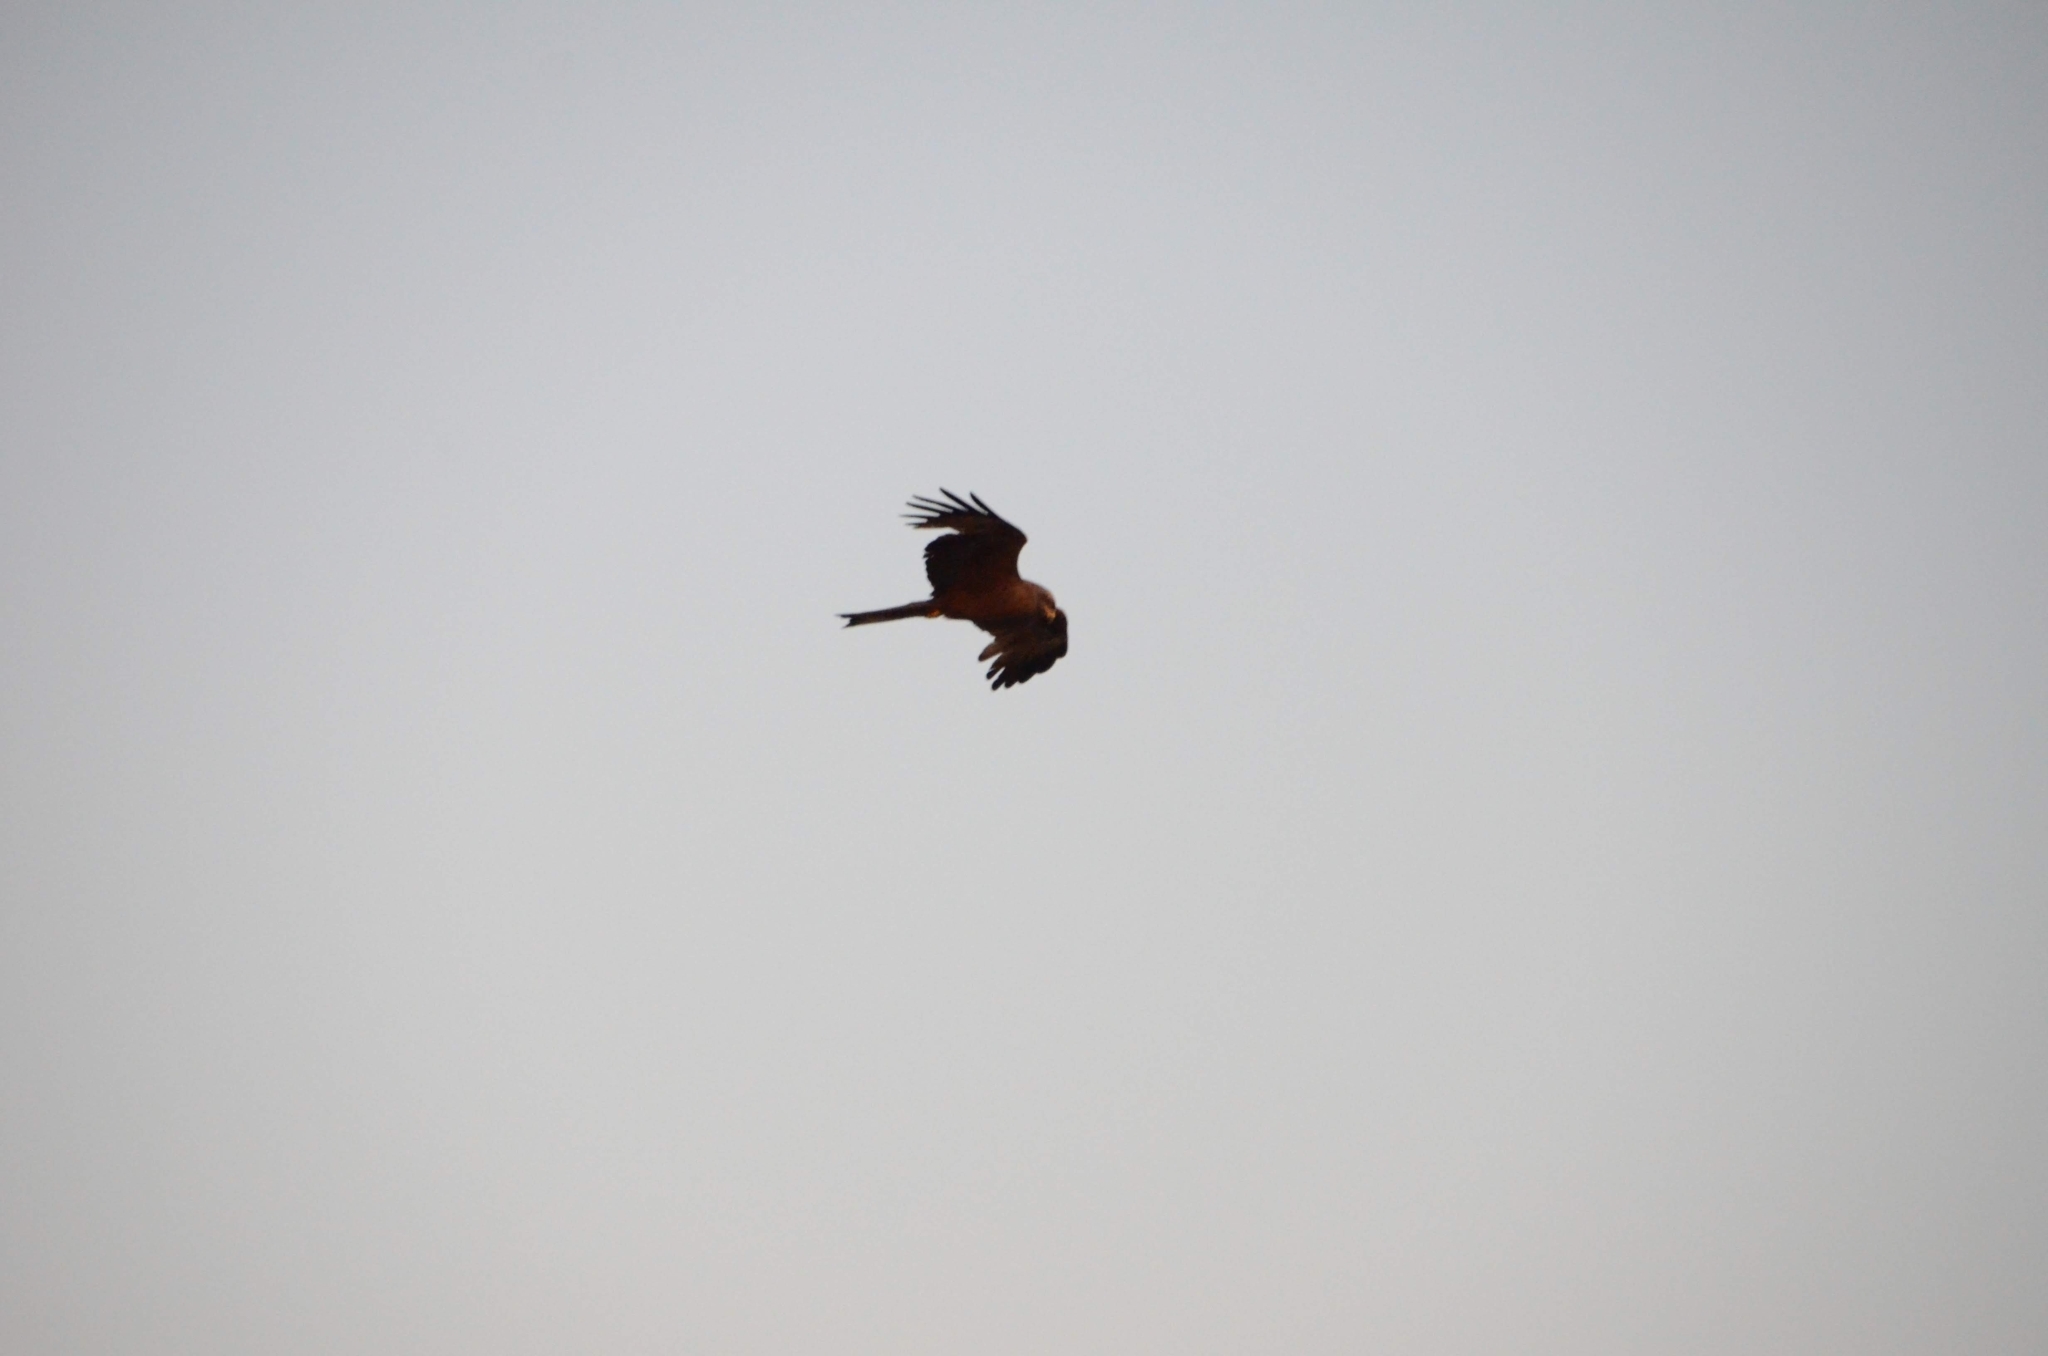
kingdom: Animalia
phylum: Chordata
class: Aves
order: Accipitriformes
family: Accipitridae
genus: Milvus
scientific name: Milvus migrans
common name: Black kite
